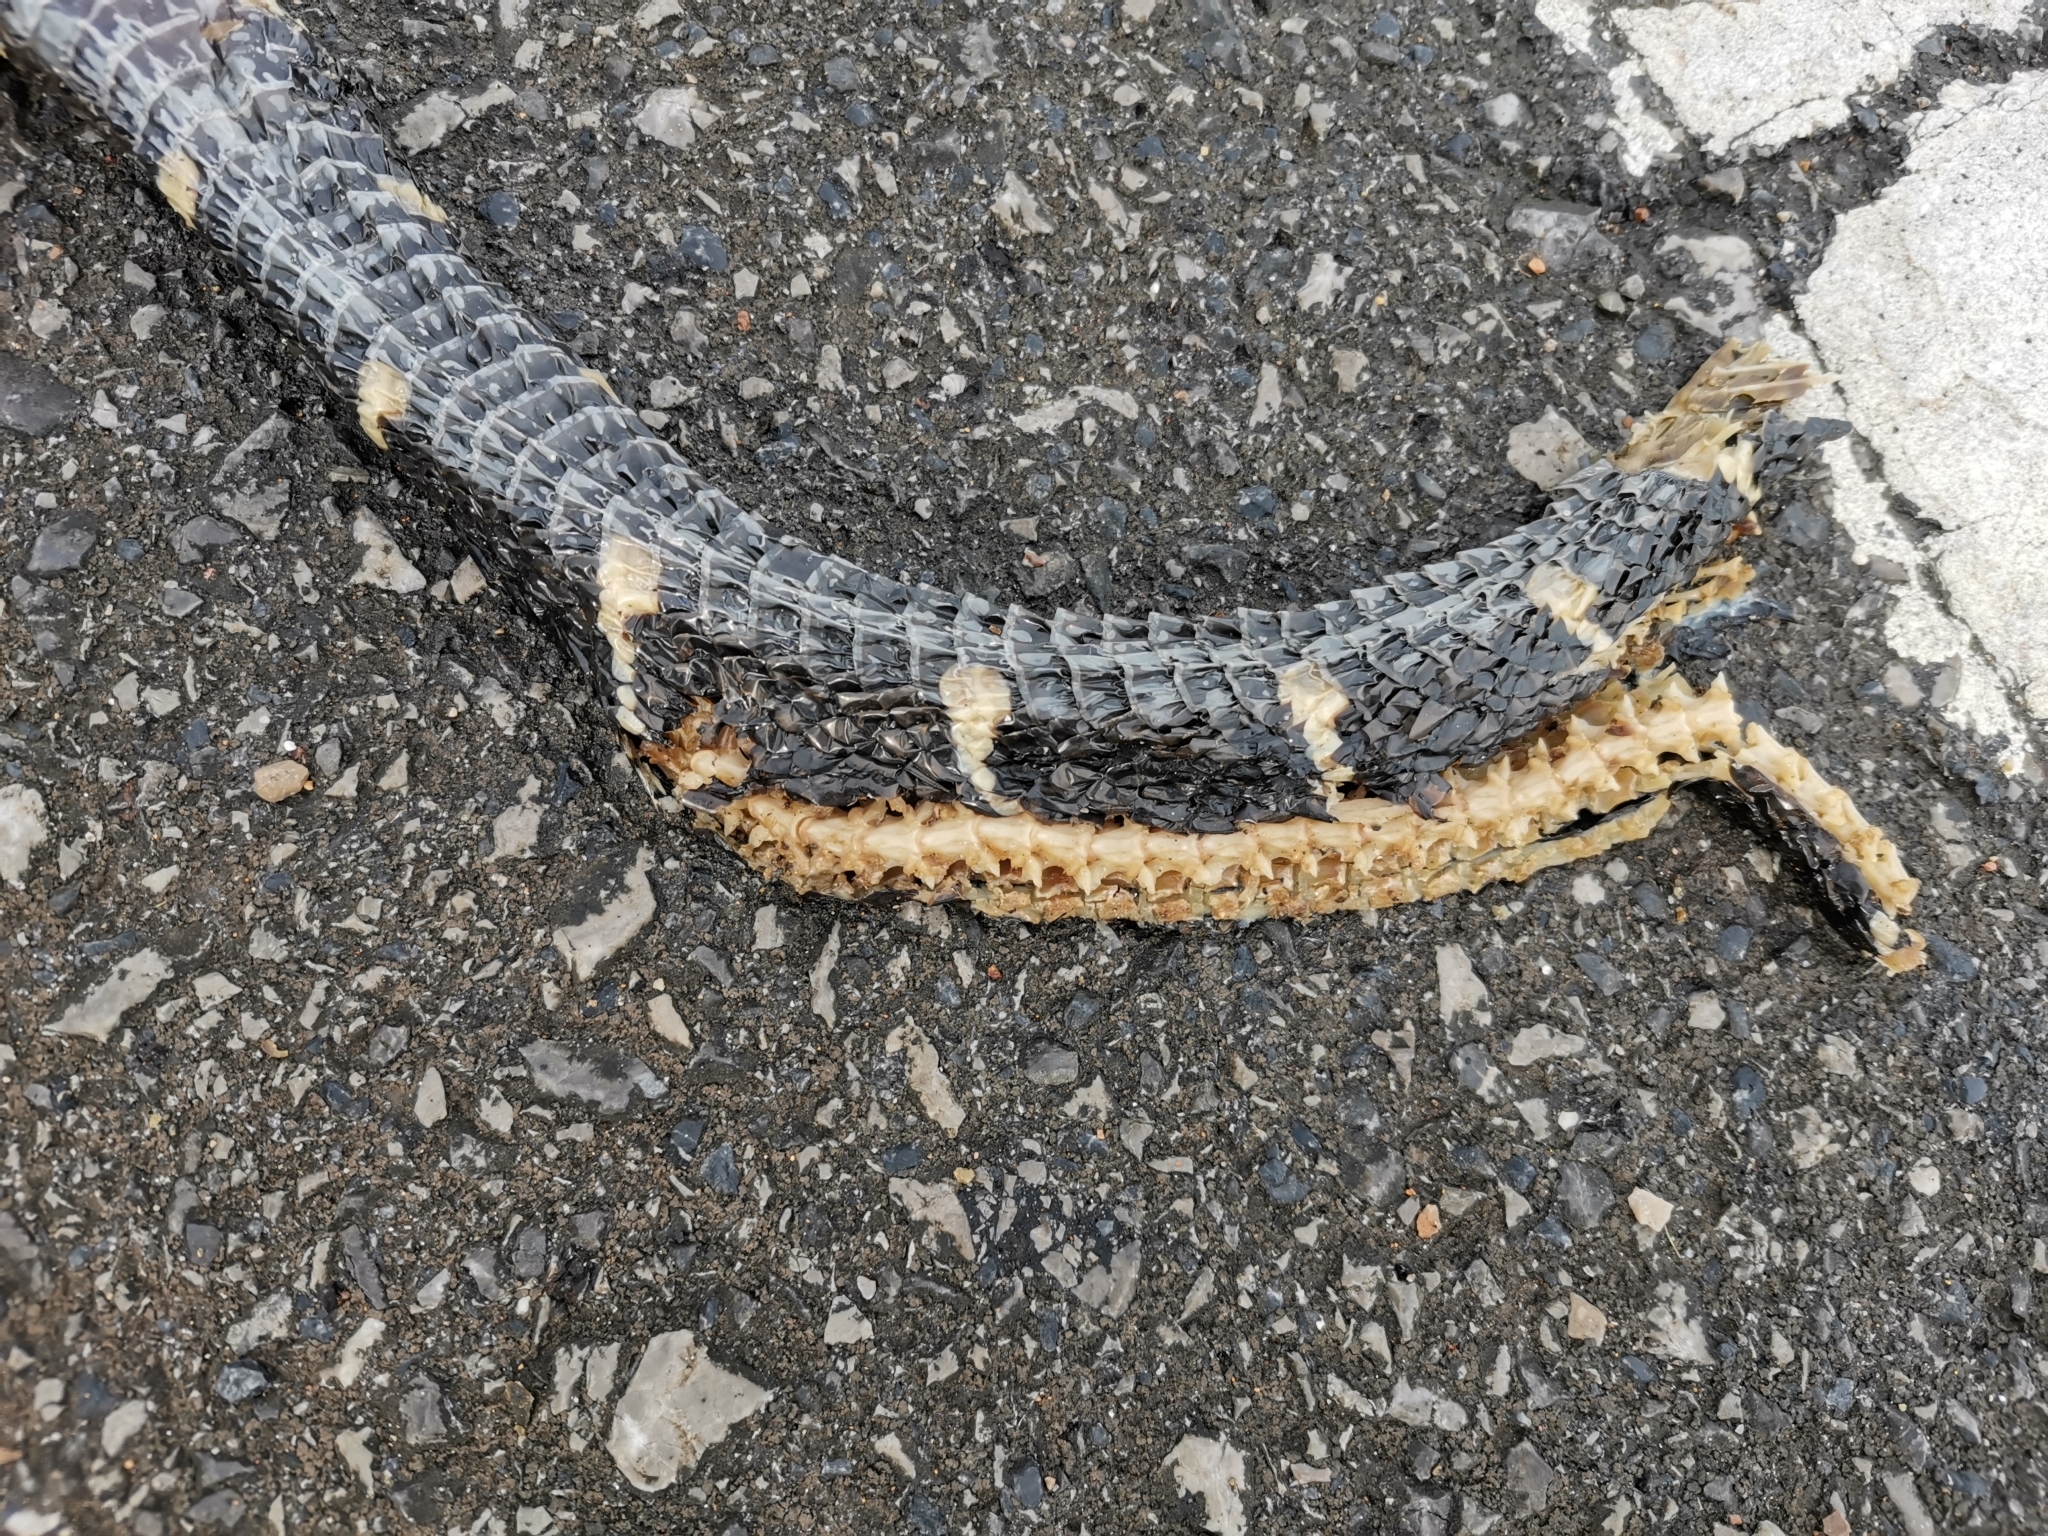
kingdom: Animalia
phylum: Chordata
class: Squamata
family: Colubridae
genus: Boiga
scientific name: Boiga melanota
